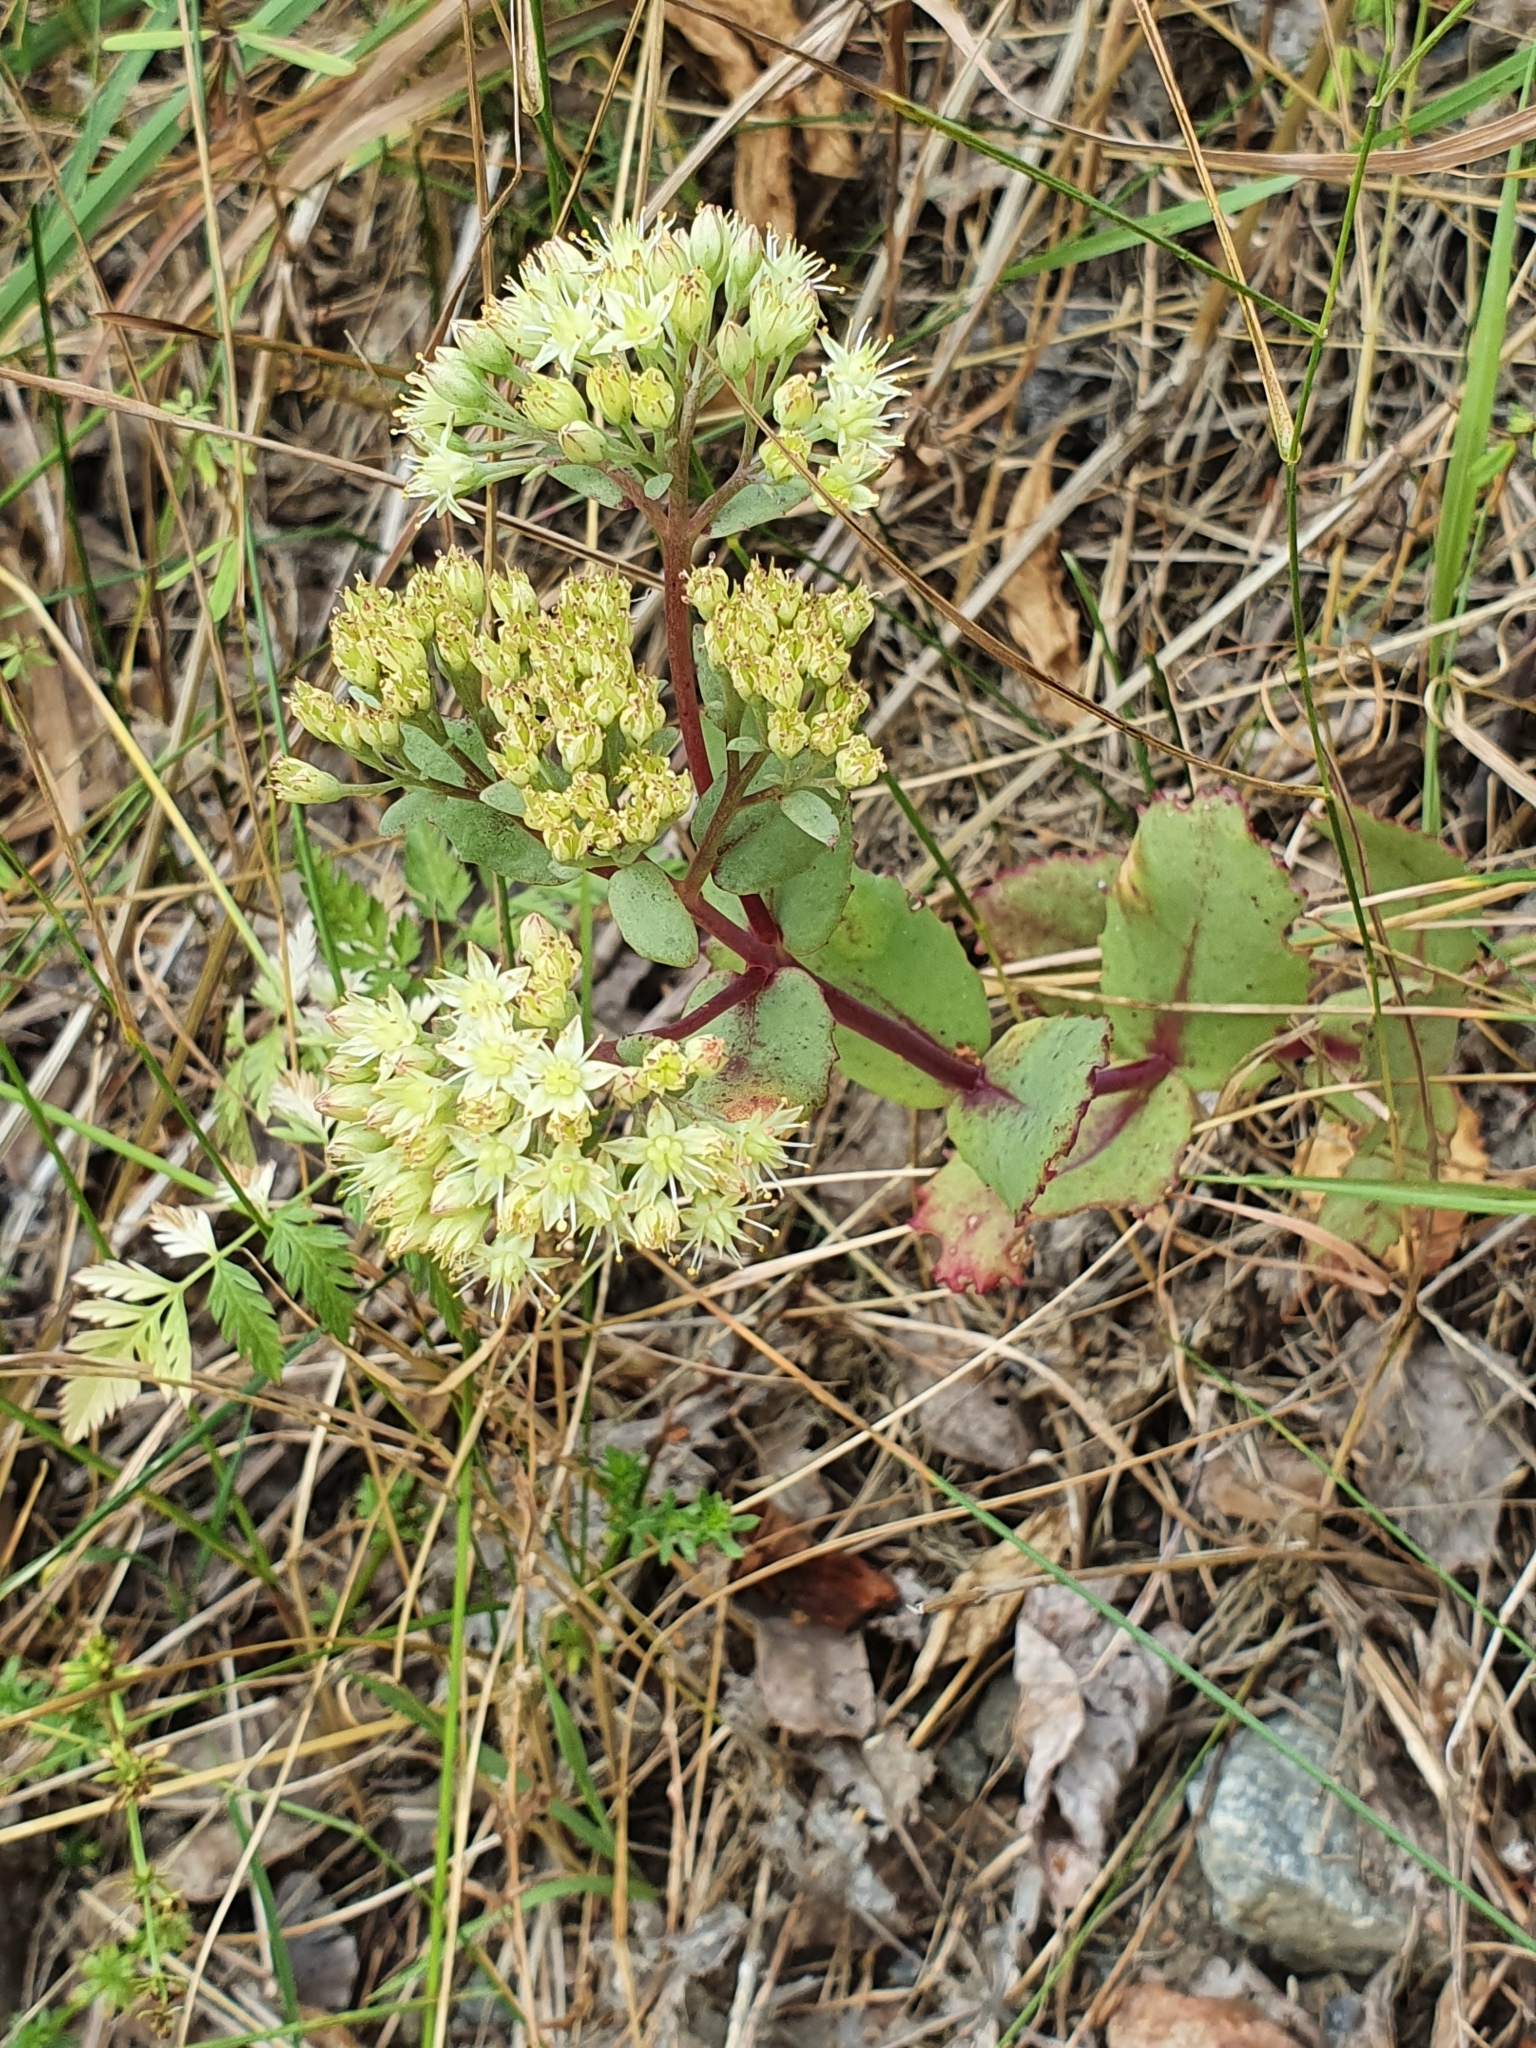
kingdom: Plantae
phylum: Tracheophyta
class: Magnoliopsida
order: Saxifragales
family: Crassulaceae
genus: Hylotelephium
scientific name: Hylotelephium maximum
